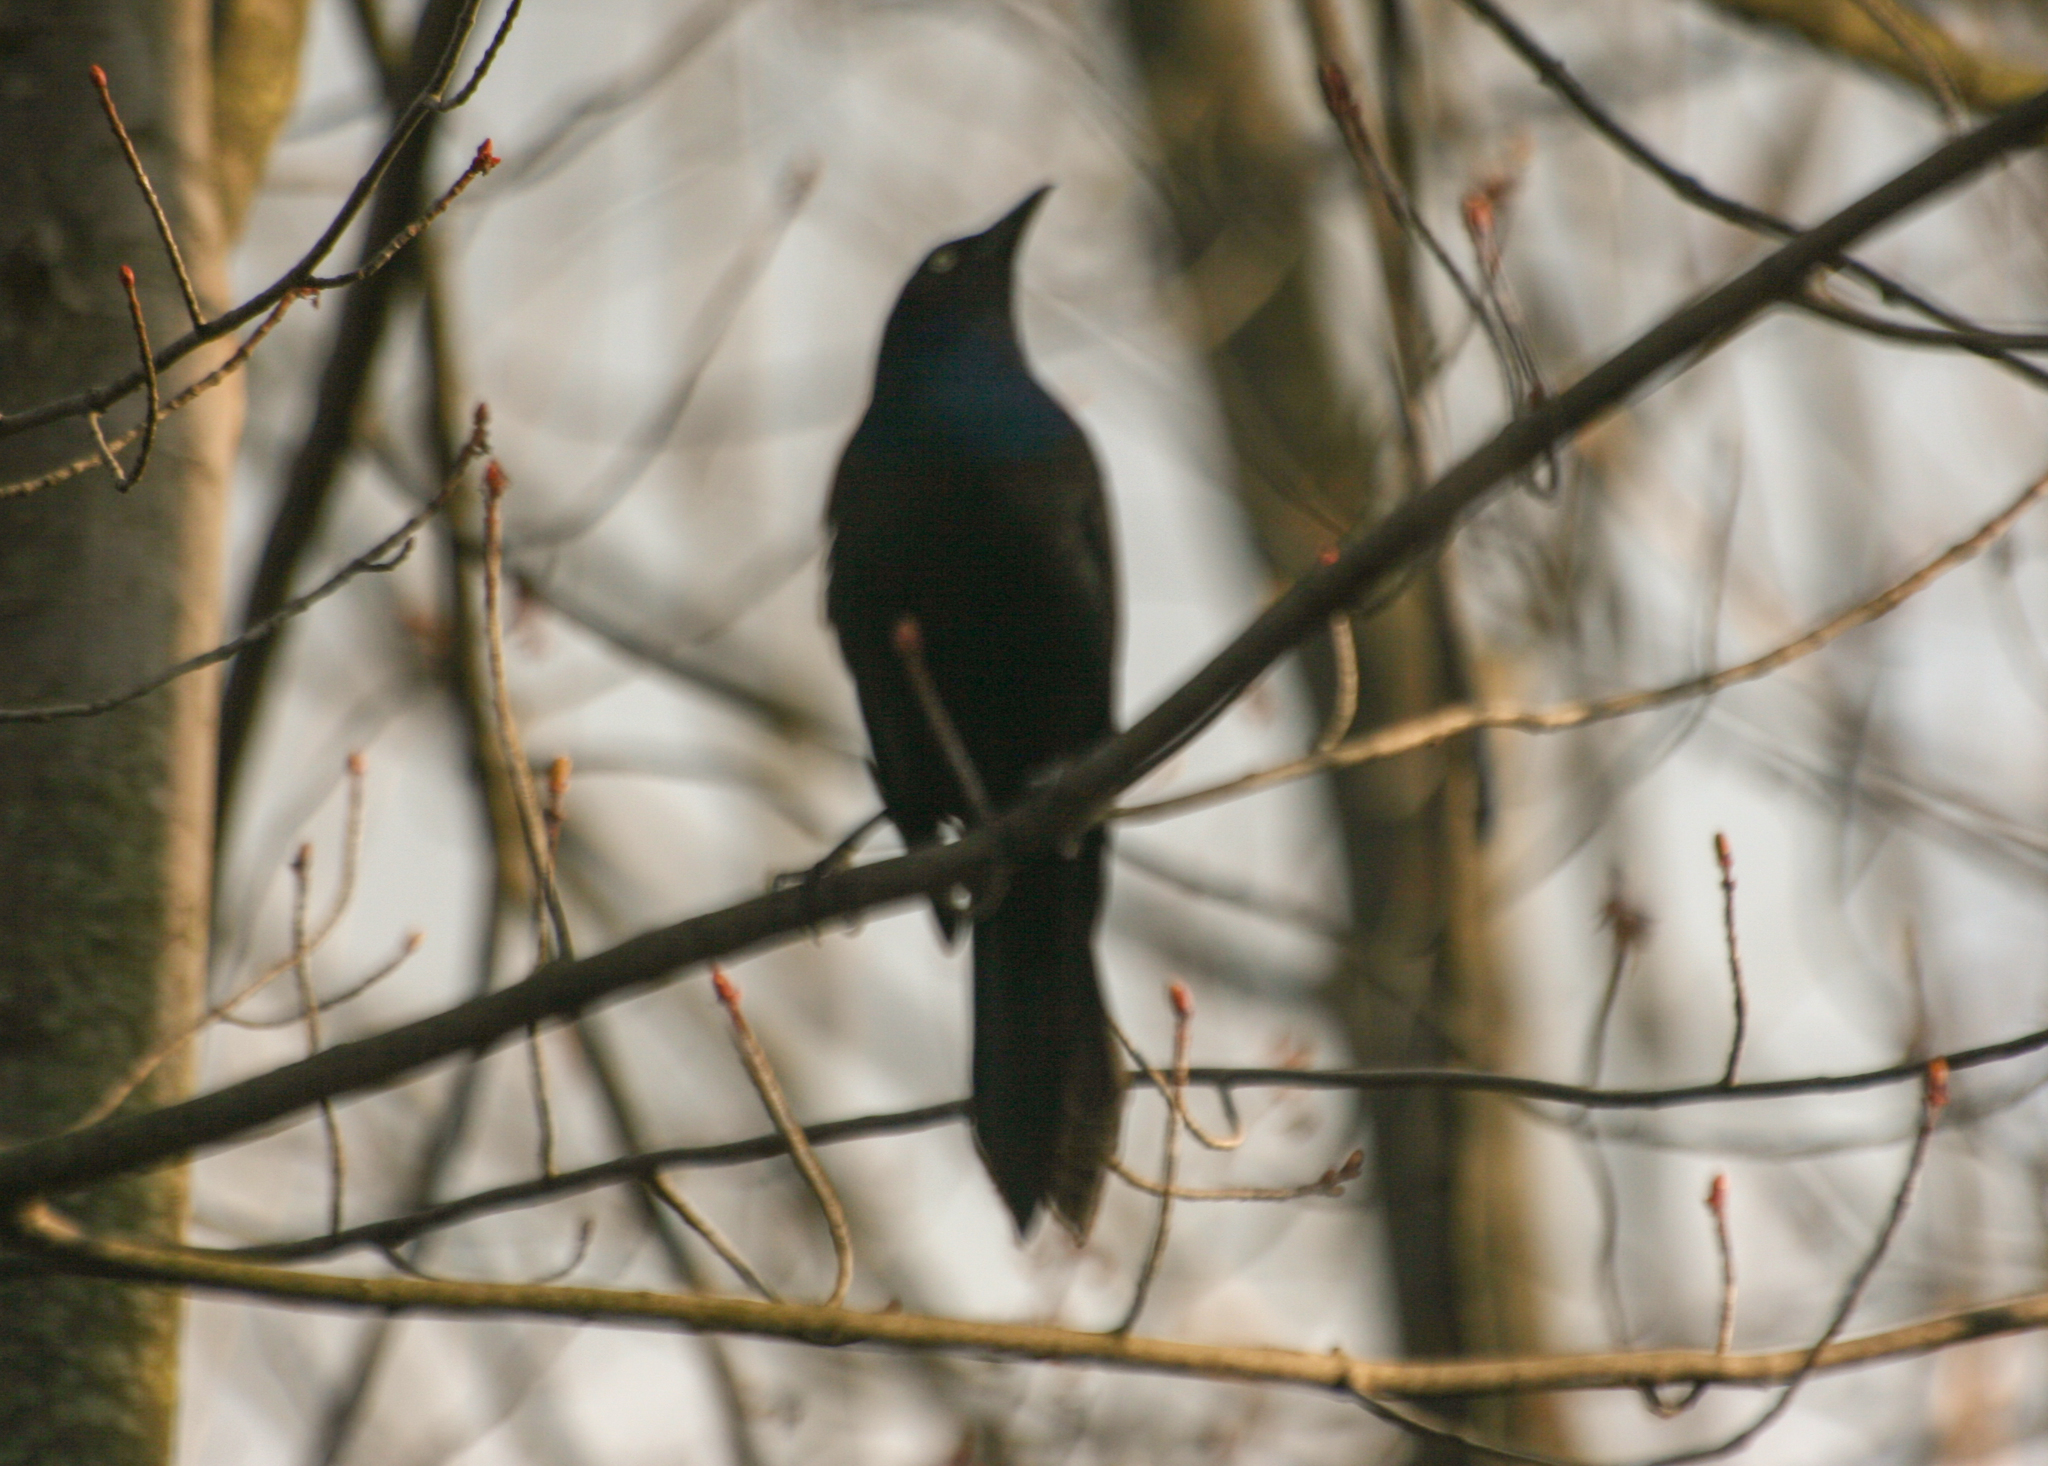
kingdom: Animalia
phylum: Chordata
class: Aves
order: Passeriformes
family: Icteridae
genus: Quiscalus
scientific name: Quiscalus quiscula
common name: Common grackle
